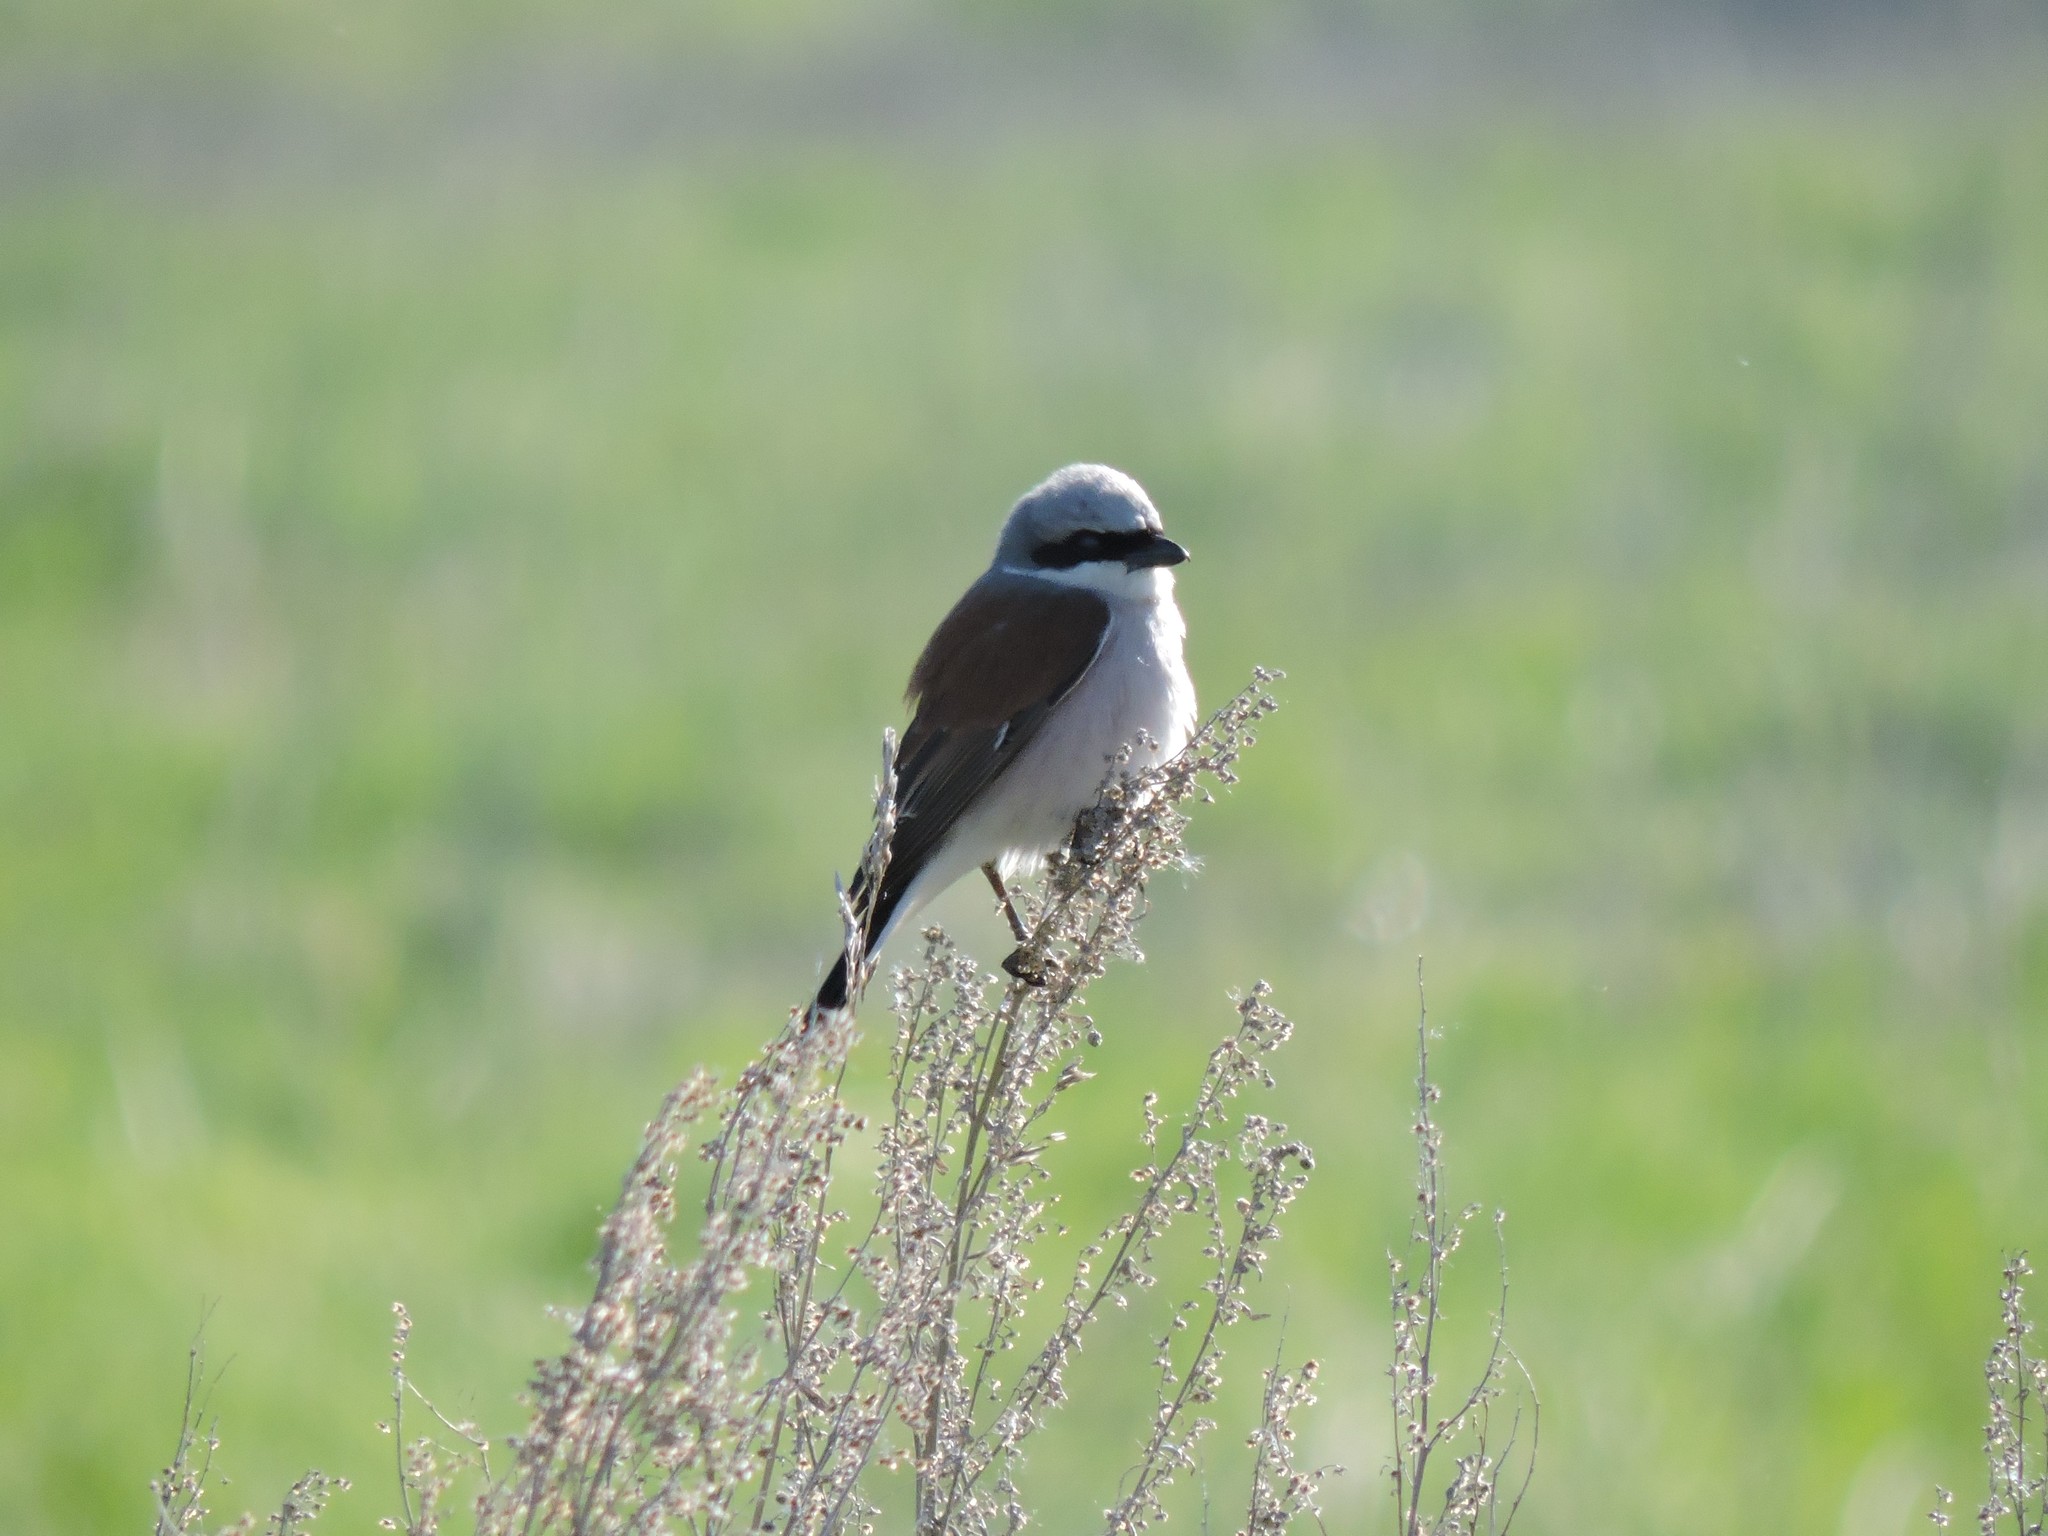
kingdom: Animalia
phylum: Chordata
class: Aves
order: Passeriformes
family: Laniidae
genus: Lanius
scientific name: Lanius collurio
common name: Red-backed shrike
